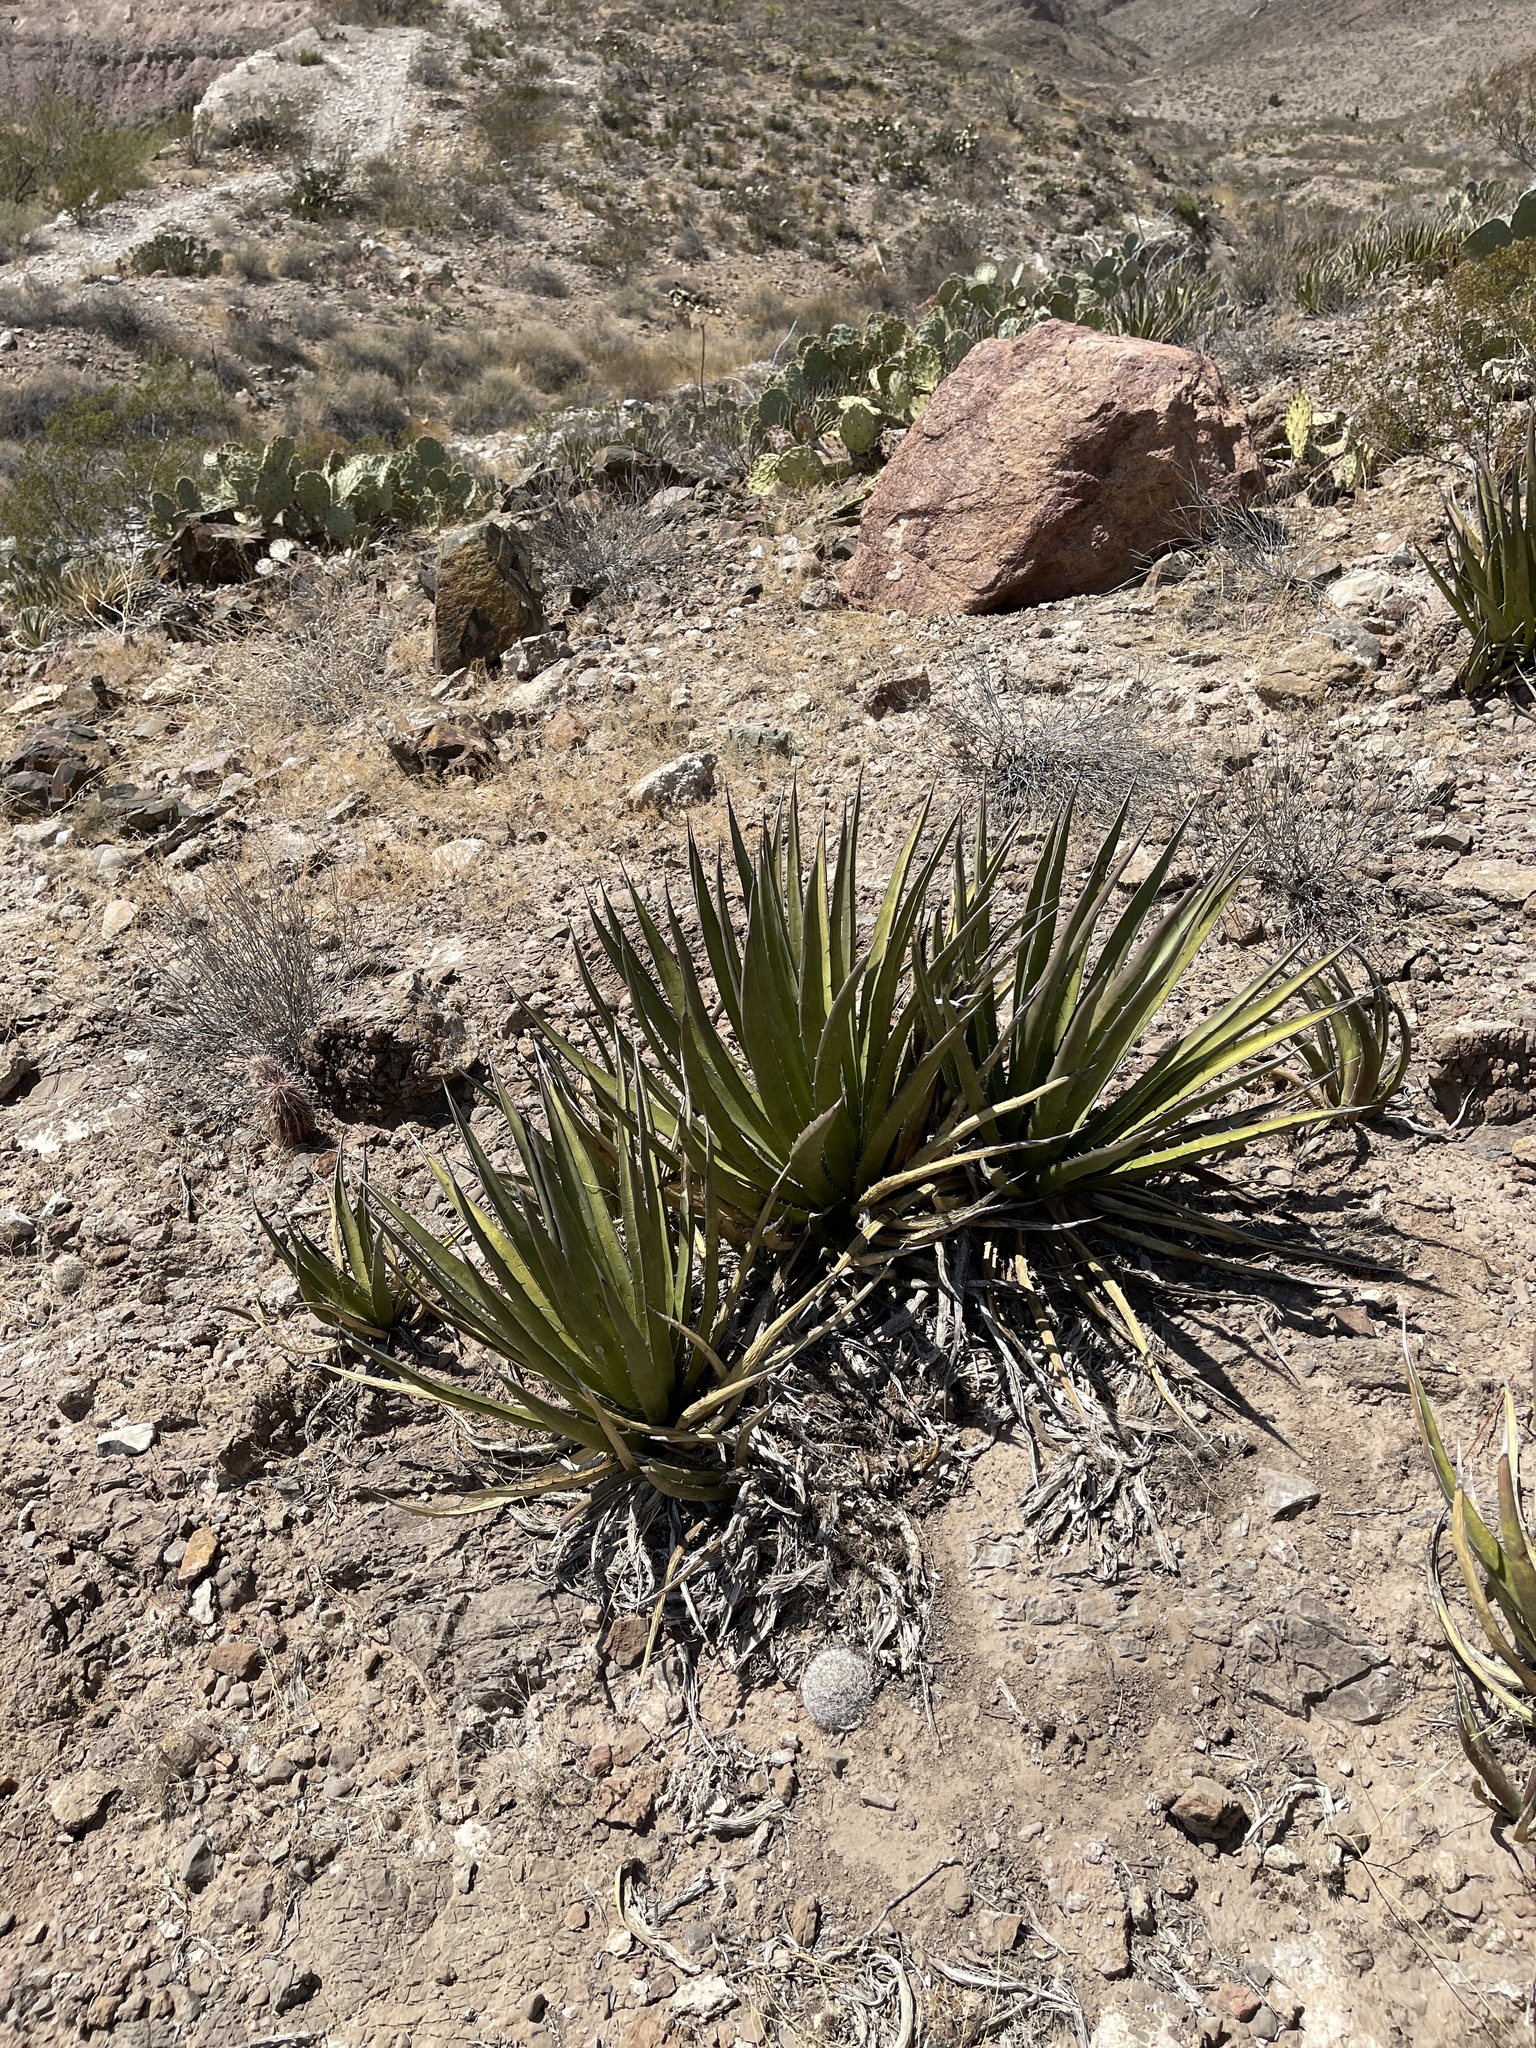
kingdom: Plantae
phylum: Tracheophyta
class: Liliopsida
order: Asparagales
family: Asparagaceae
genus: Agave
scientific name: Agave lechuguilla
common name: Lecheguilla agave
